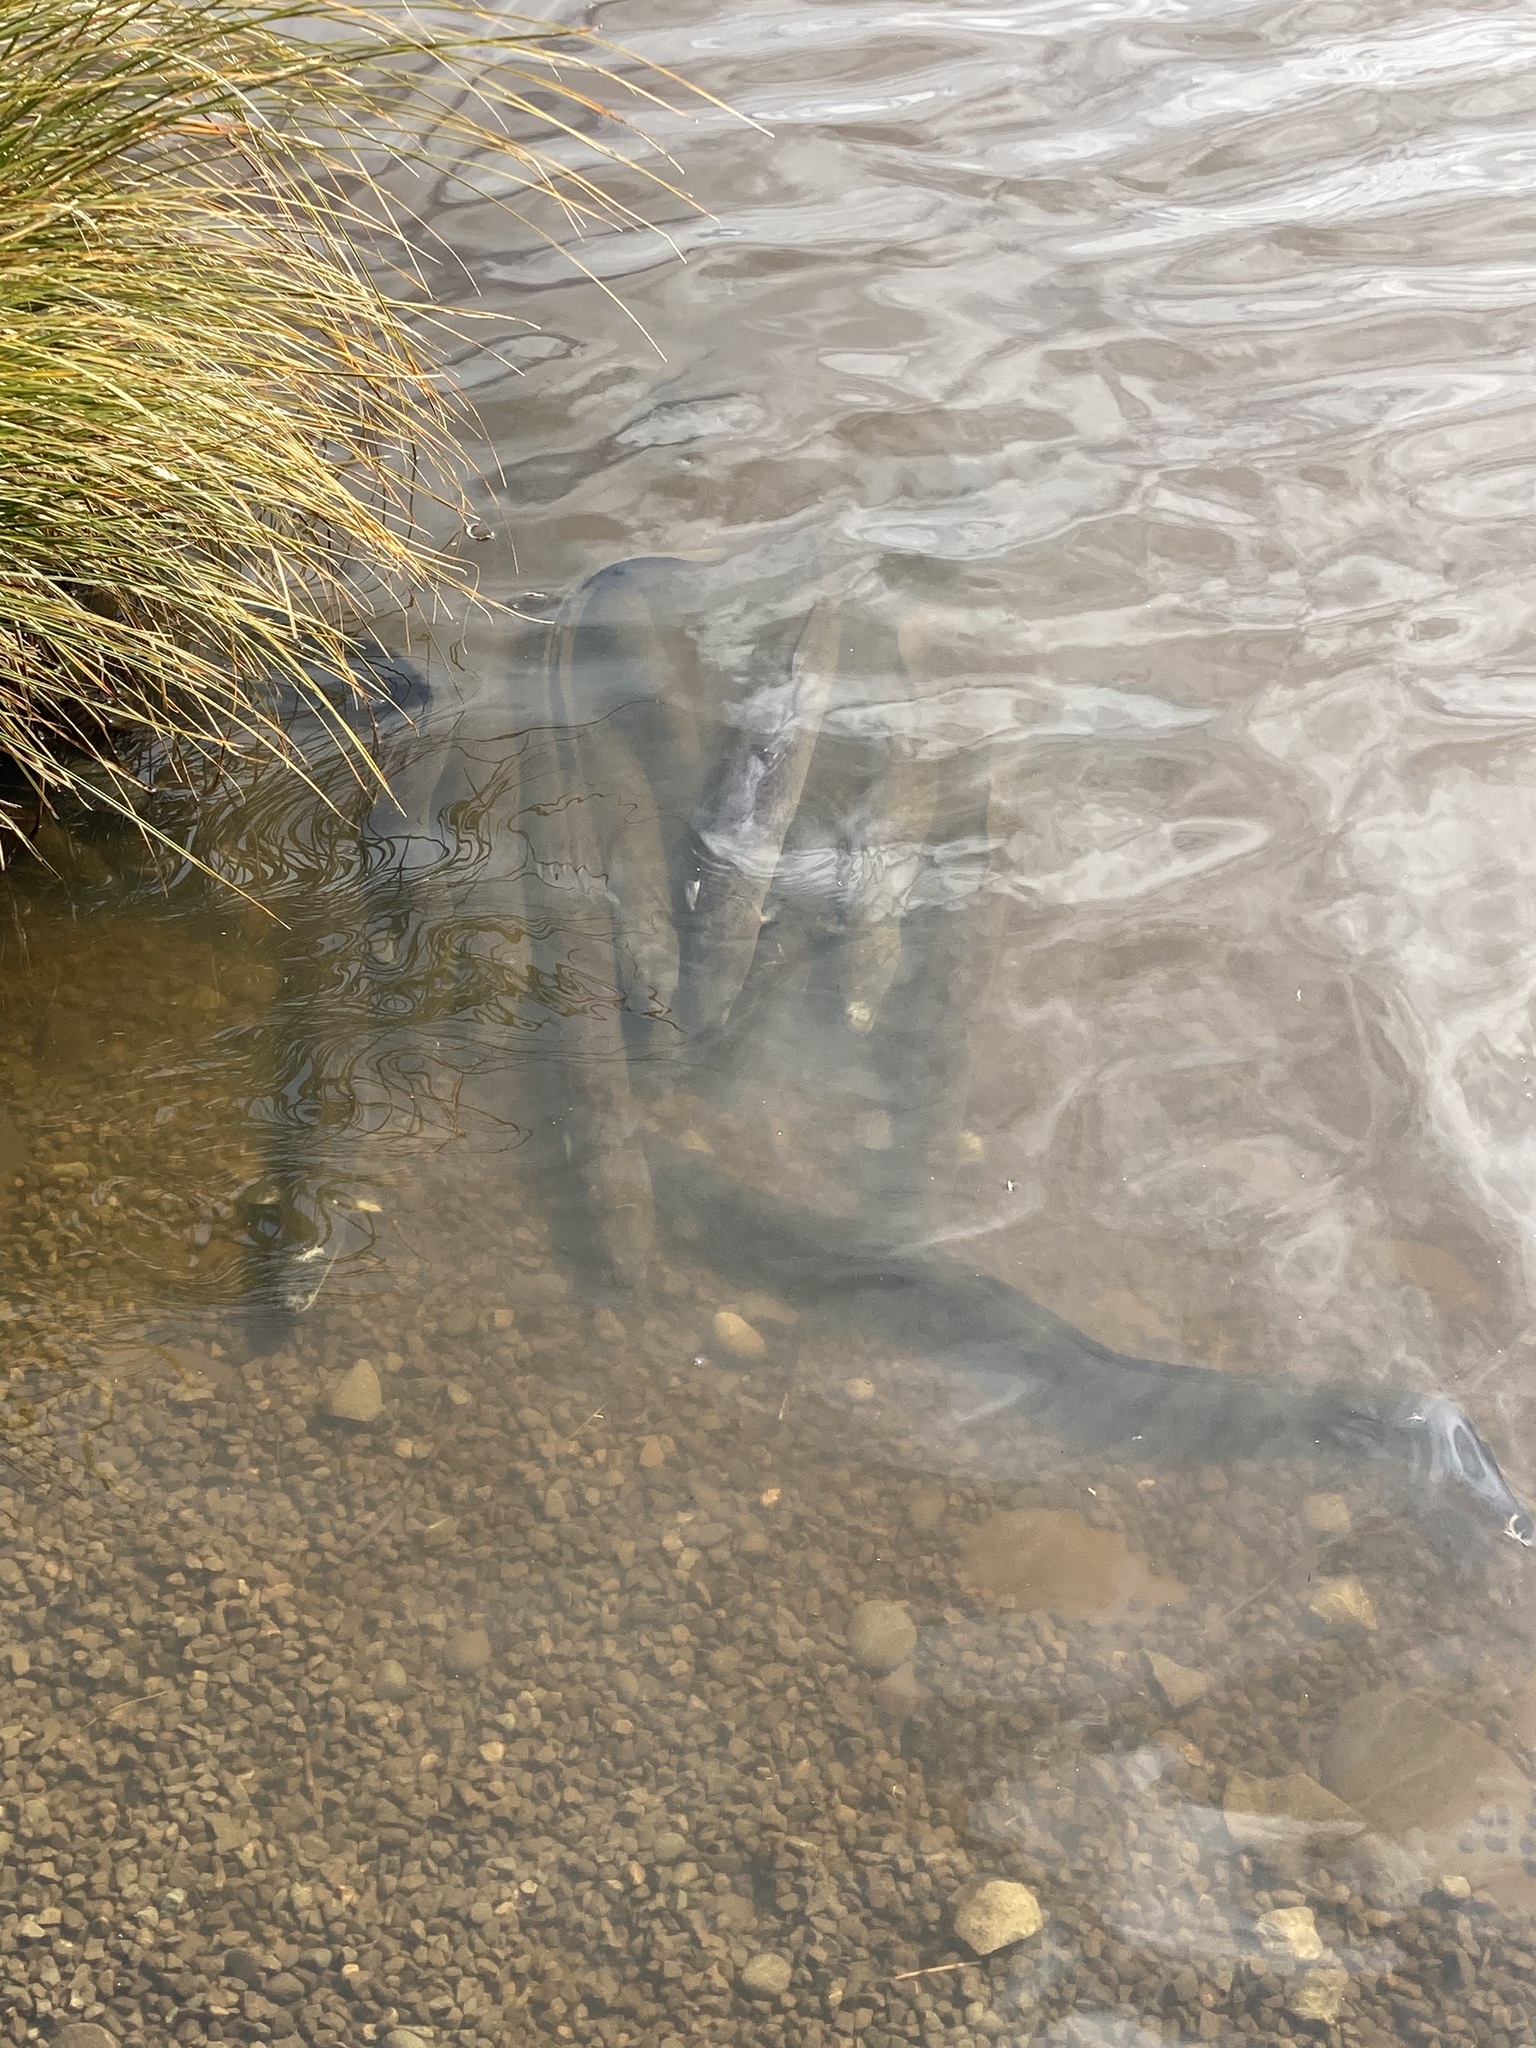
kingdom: Animalia
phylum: Chordata
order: Anguilliformes
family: Anguillidae
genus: Anguilla
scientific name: Anguilla australis
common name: Shortfin eel
